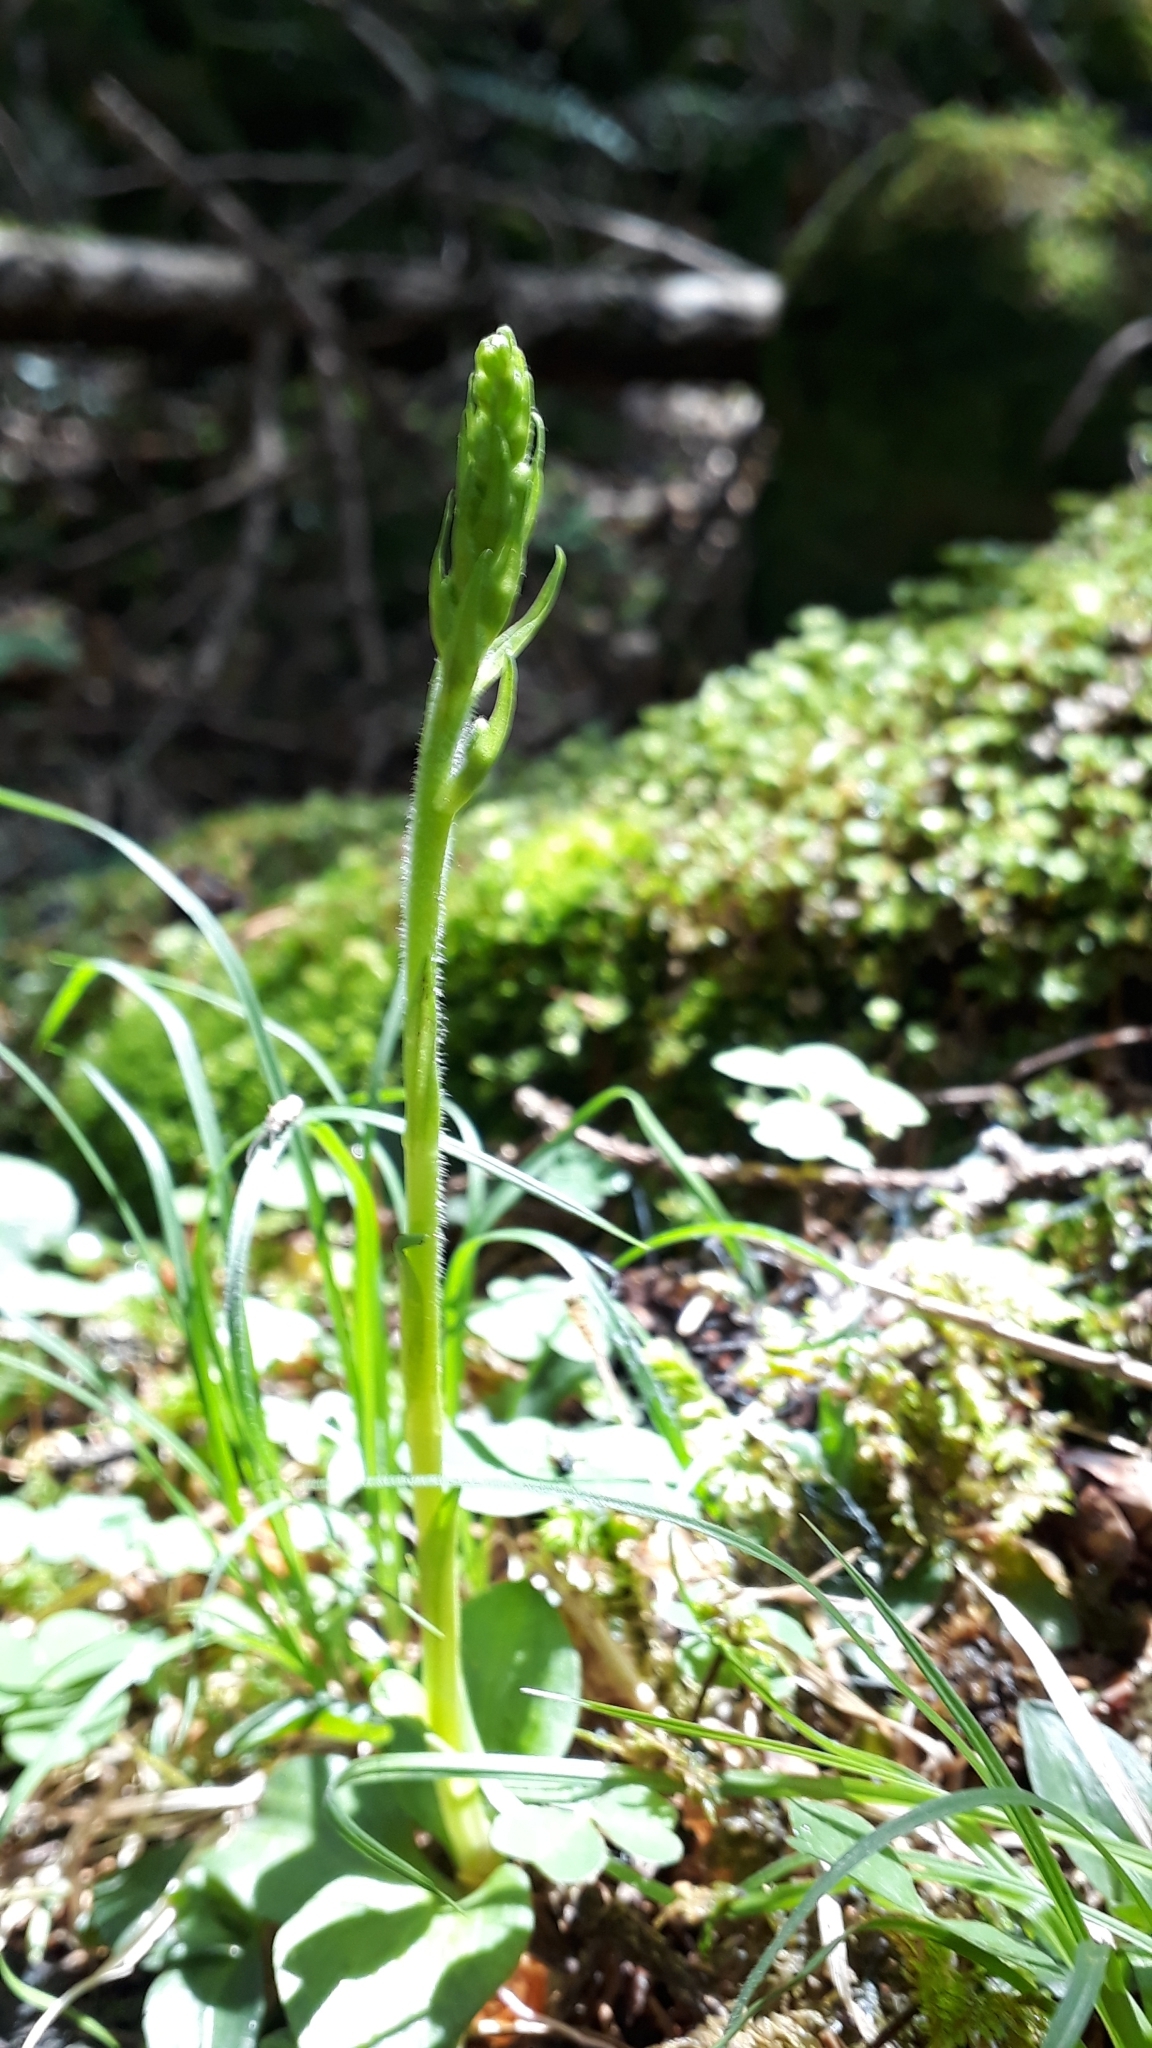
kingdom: Plantae
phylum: Tracheophyta
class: Liliopsida
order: Asparagales
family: Orchidaceae
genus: Goodyera
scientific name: Goodyera repens
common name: Creeping lady's-tresses
